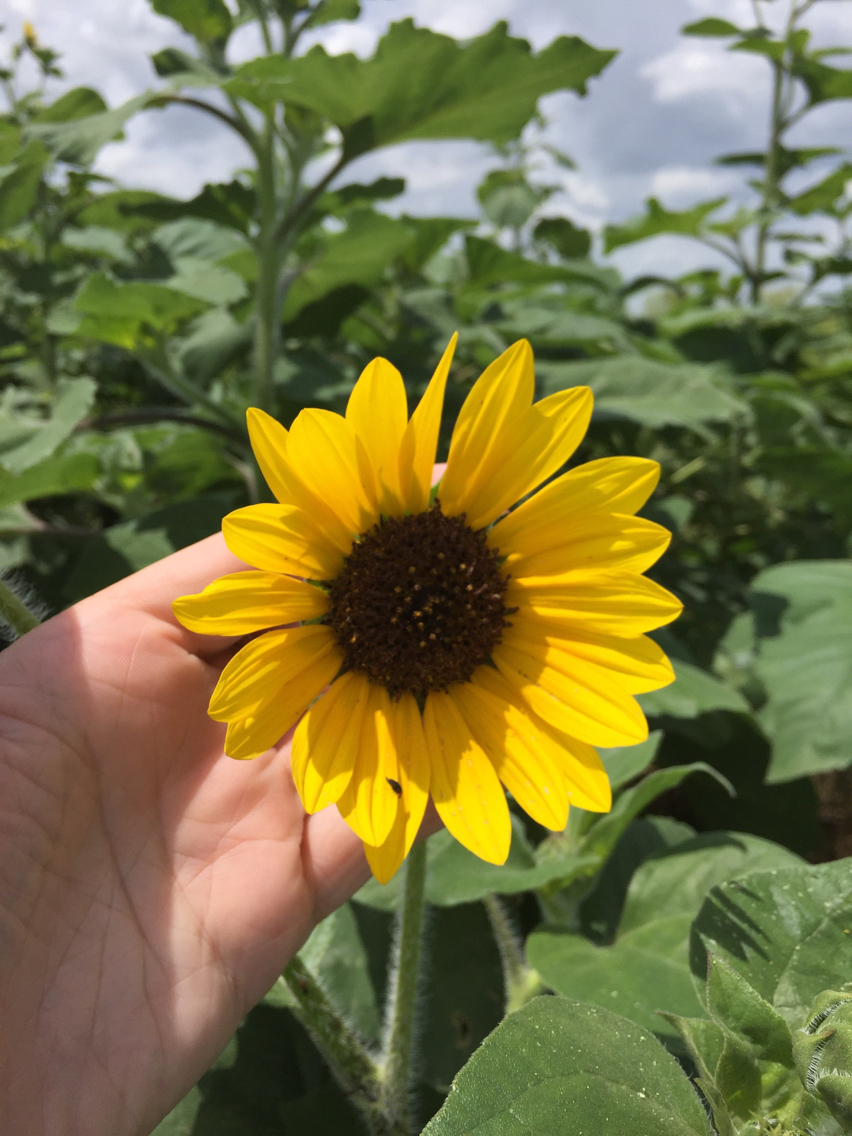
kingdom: Plantae
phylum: Tracheophyta
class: Magnoliopsida
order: Asterales
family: Asteraceae
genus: Helianthus
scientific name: Helianthus annuus
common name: Sunflower
